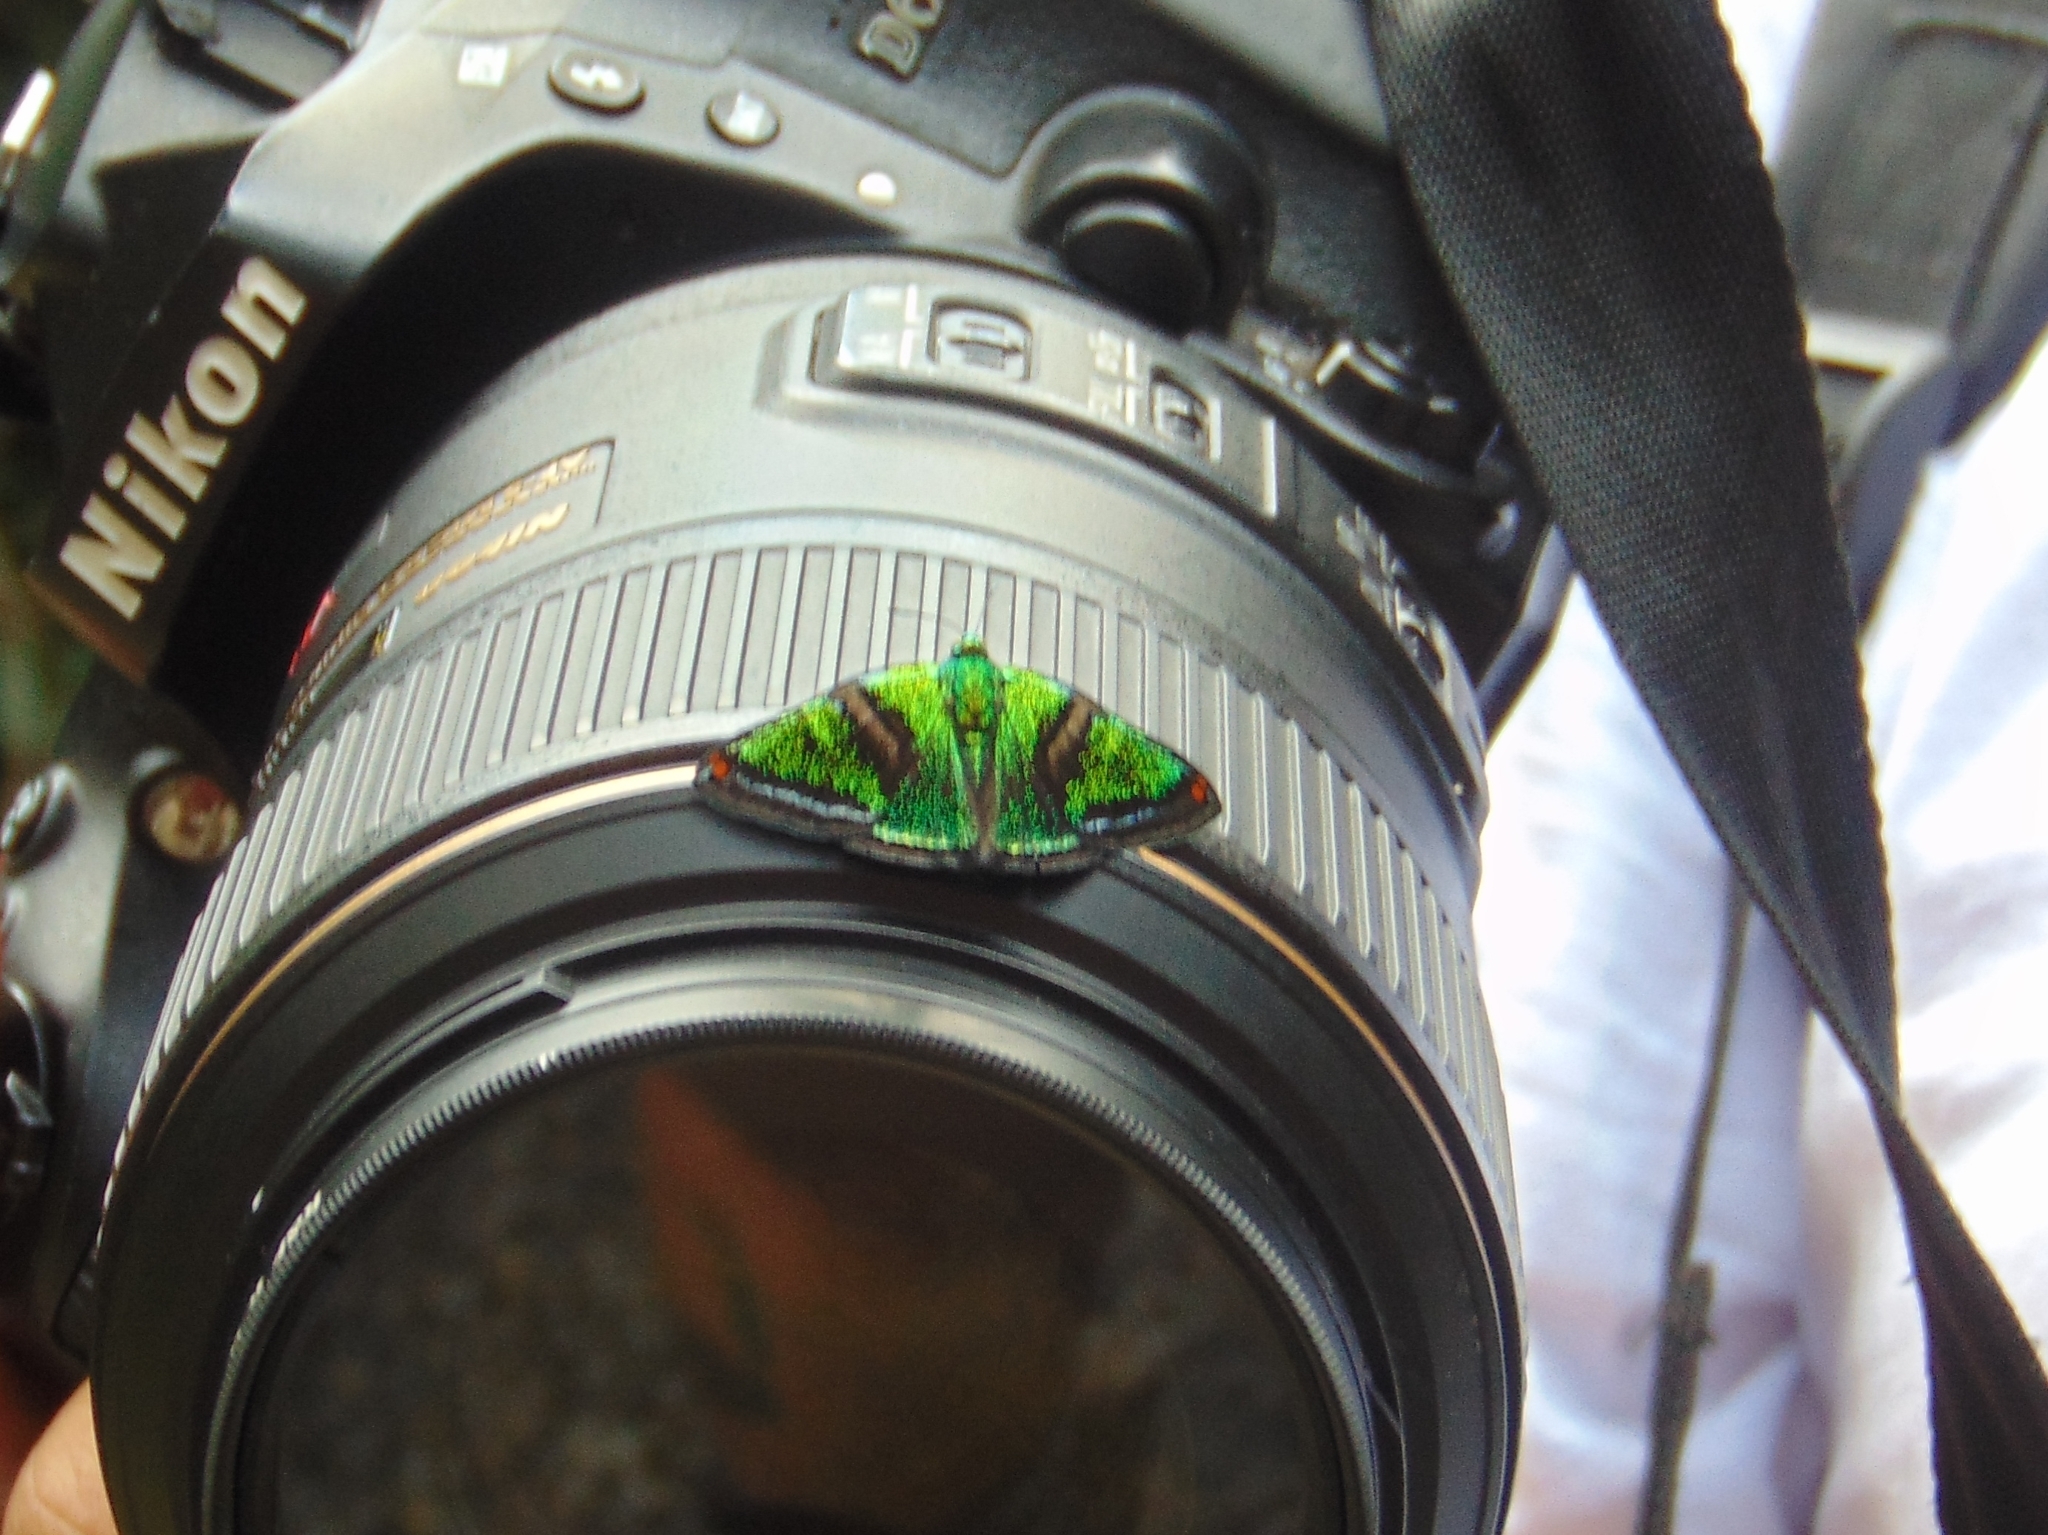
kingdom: Animalia
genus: Caria
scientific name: Caria plutargus
